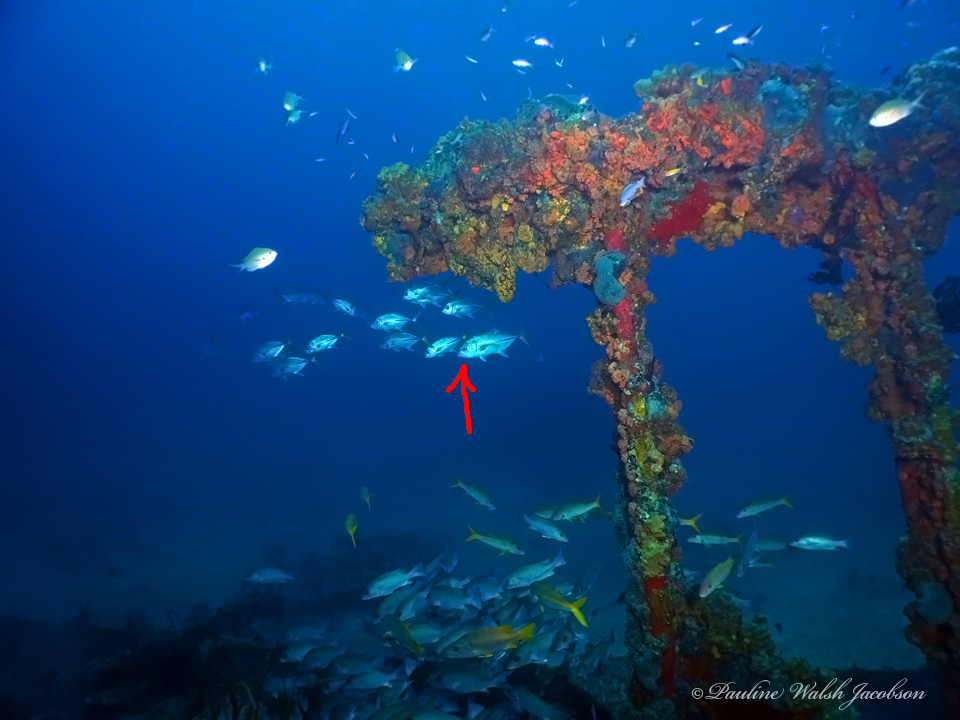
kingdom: Animalia
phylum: Chordata
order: Perciformes
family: Carangidae
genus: Caranx
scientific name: Caranx latus
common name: Horse eye jack
